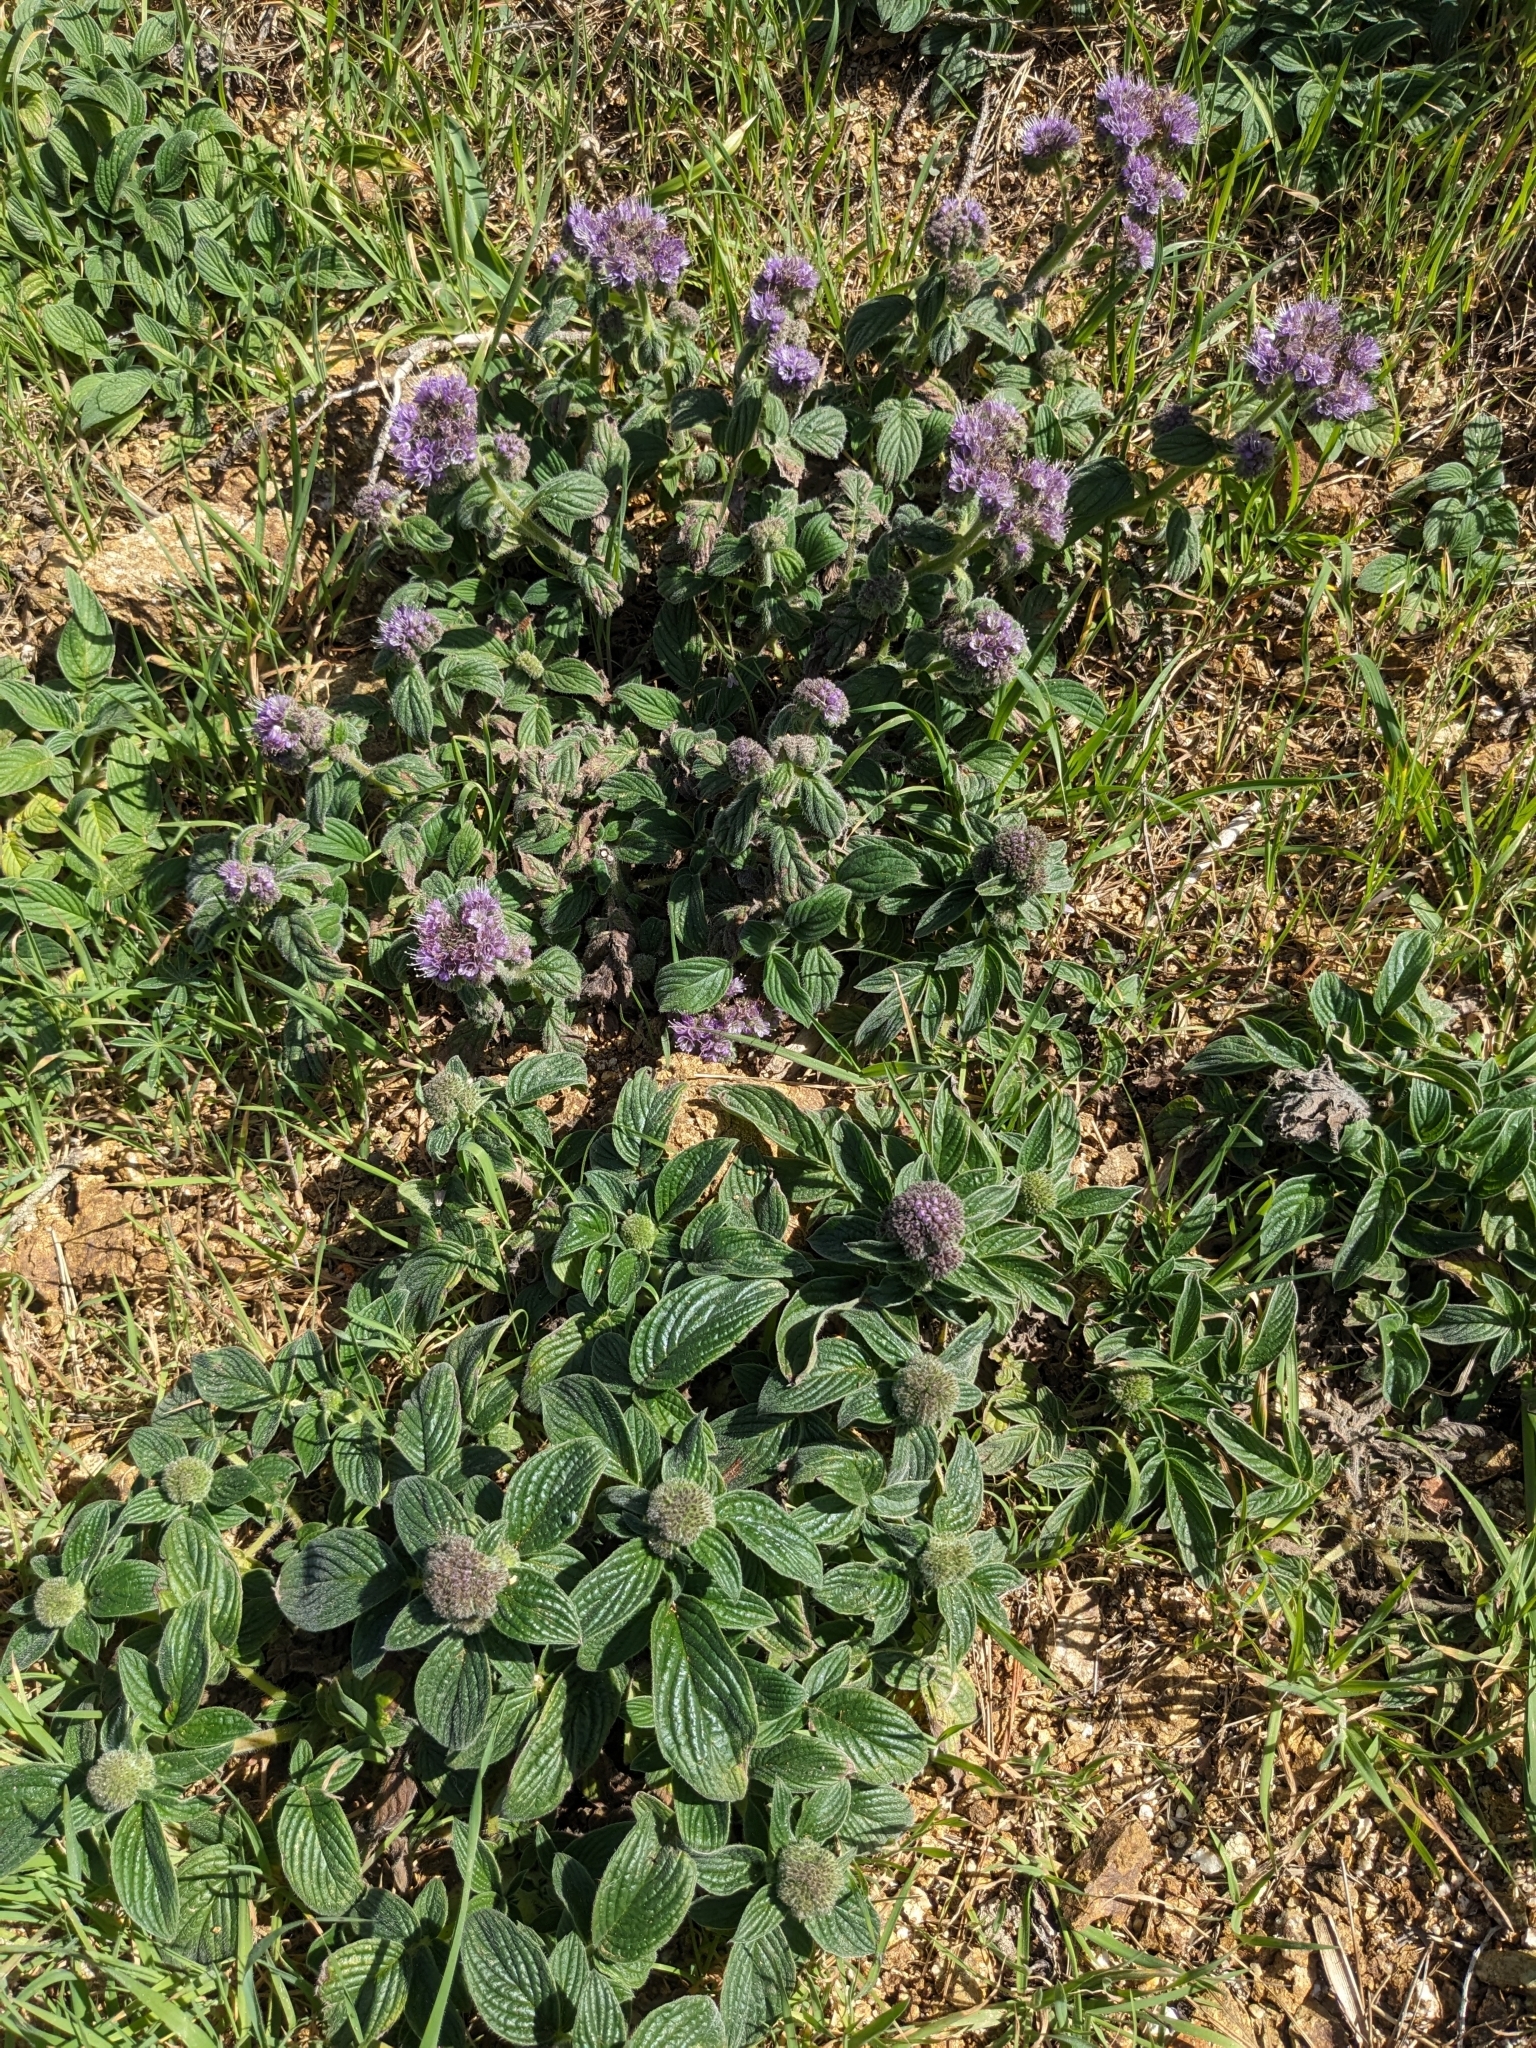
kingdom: Plantae
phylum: Tracheophyta
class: Magnoliopsida
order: Boraginales
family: Hydrophyllaceae
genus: Phacelia
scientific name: Phacelia californica
